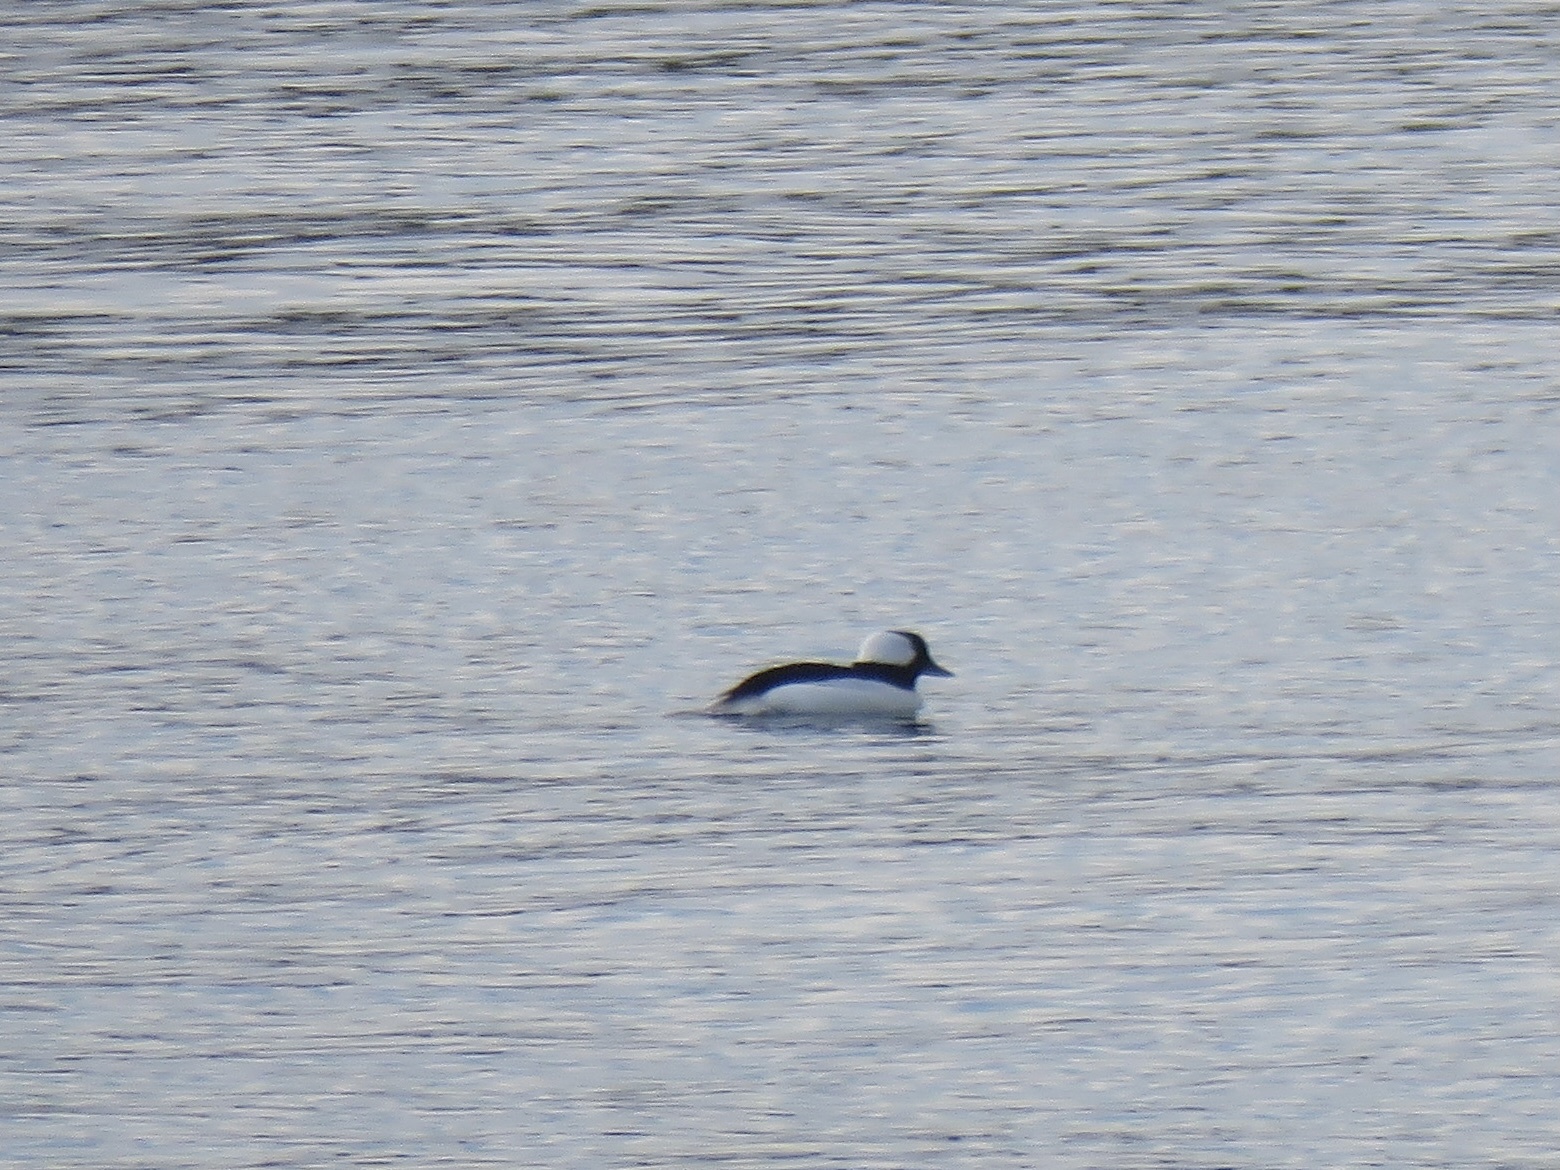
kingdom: Animalia
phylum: Chordata
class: Aves
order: Anseriformes
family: Anatidae
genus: Bucephala
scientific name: Bucephala albeola
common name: Bufflehead
